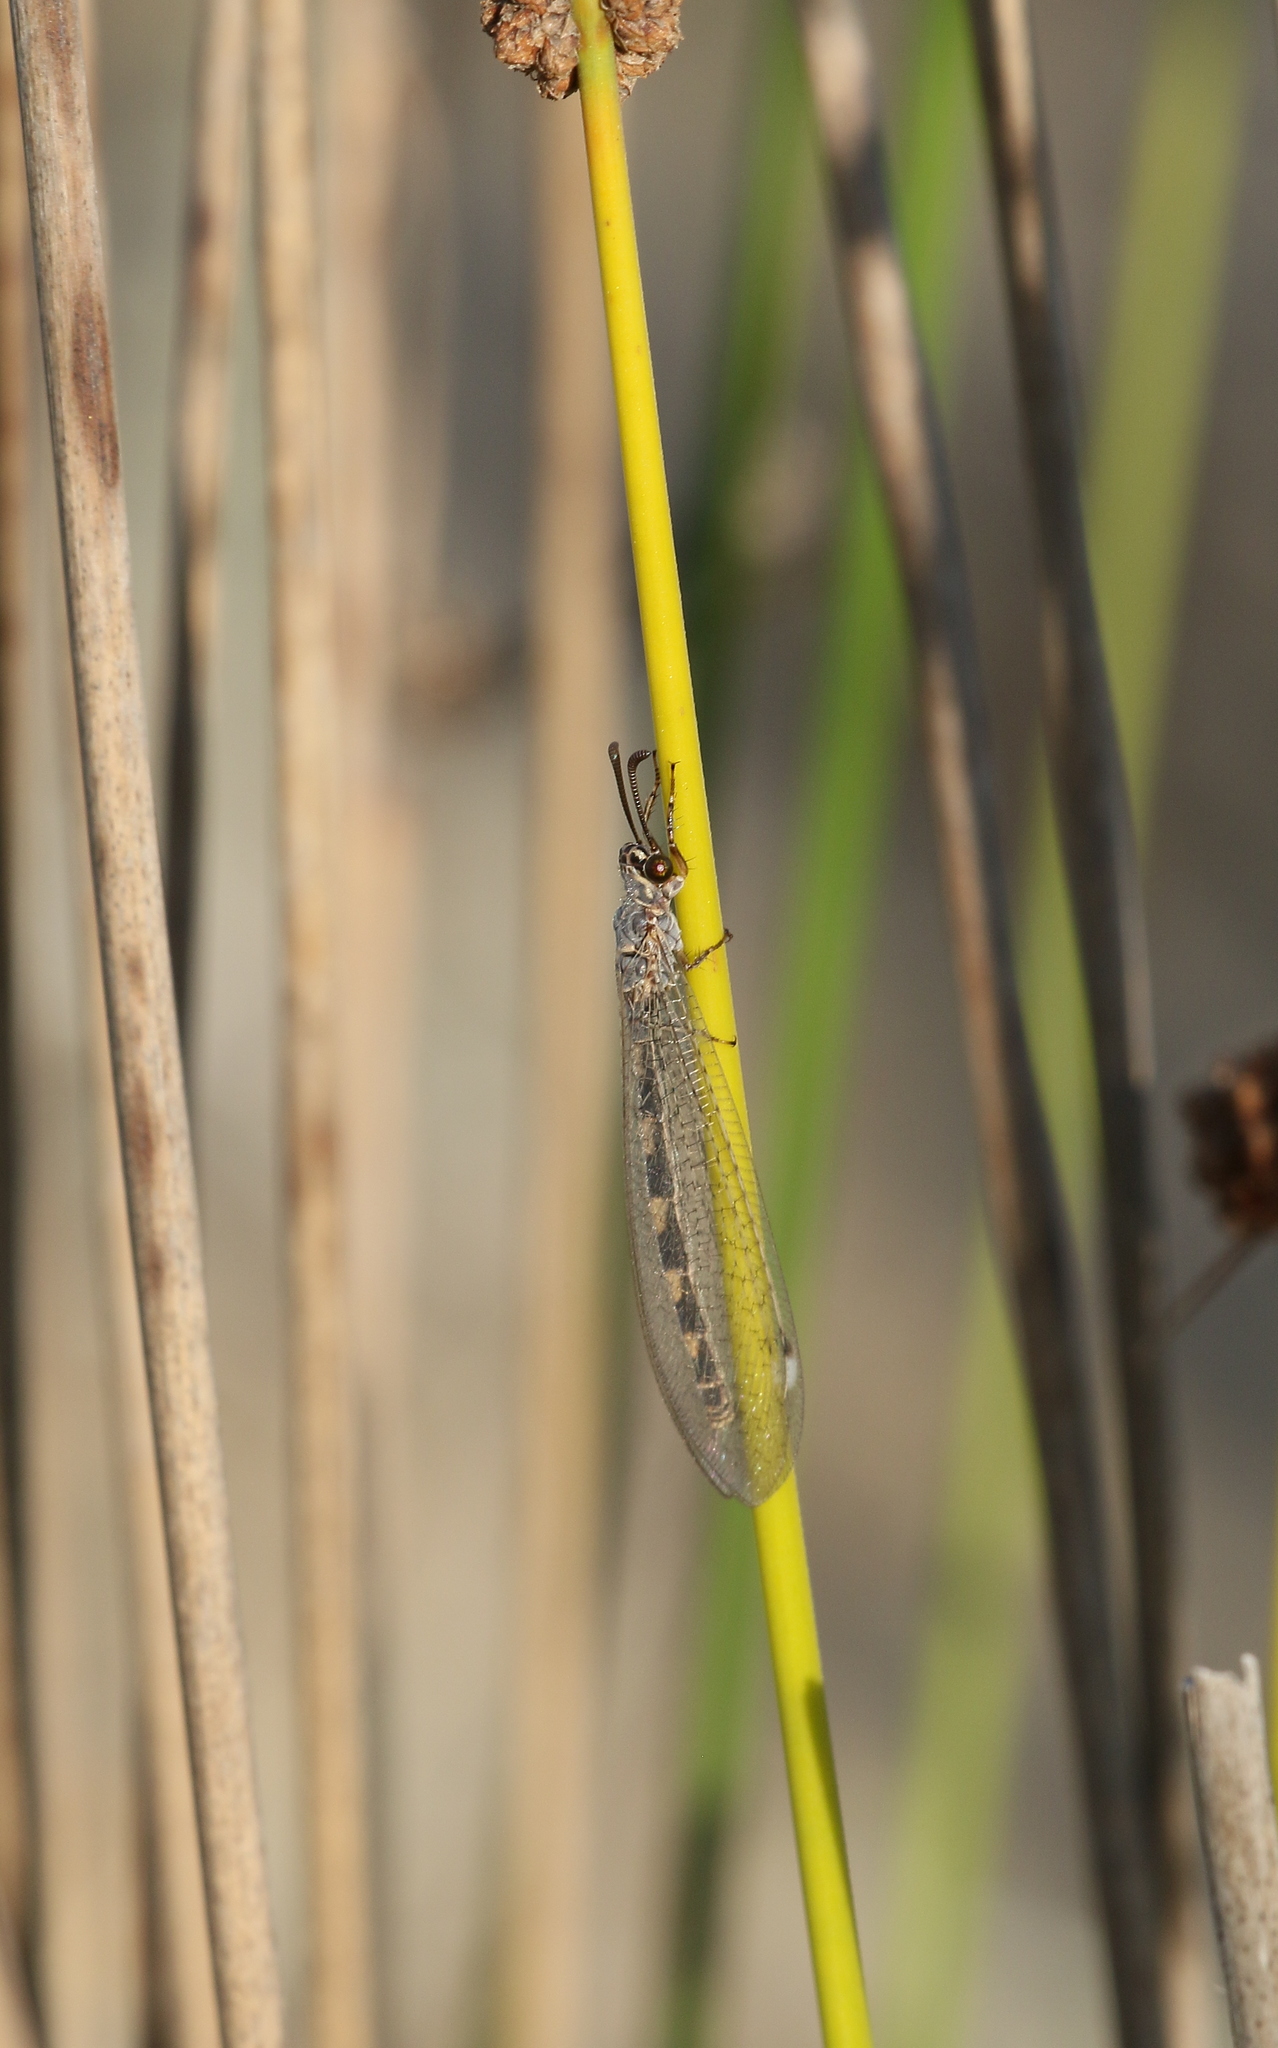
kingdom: Animalia
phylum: Arthropoda
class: Insecta
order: Neuroptera
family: Myrmeleontidae
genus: Myrmeleon
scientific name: Myrmeleon inconspicuus
